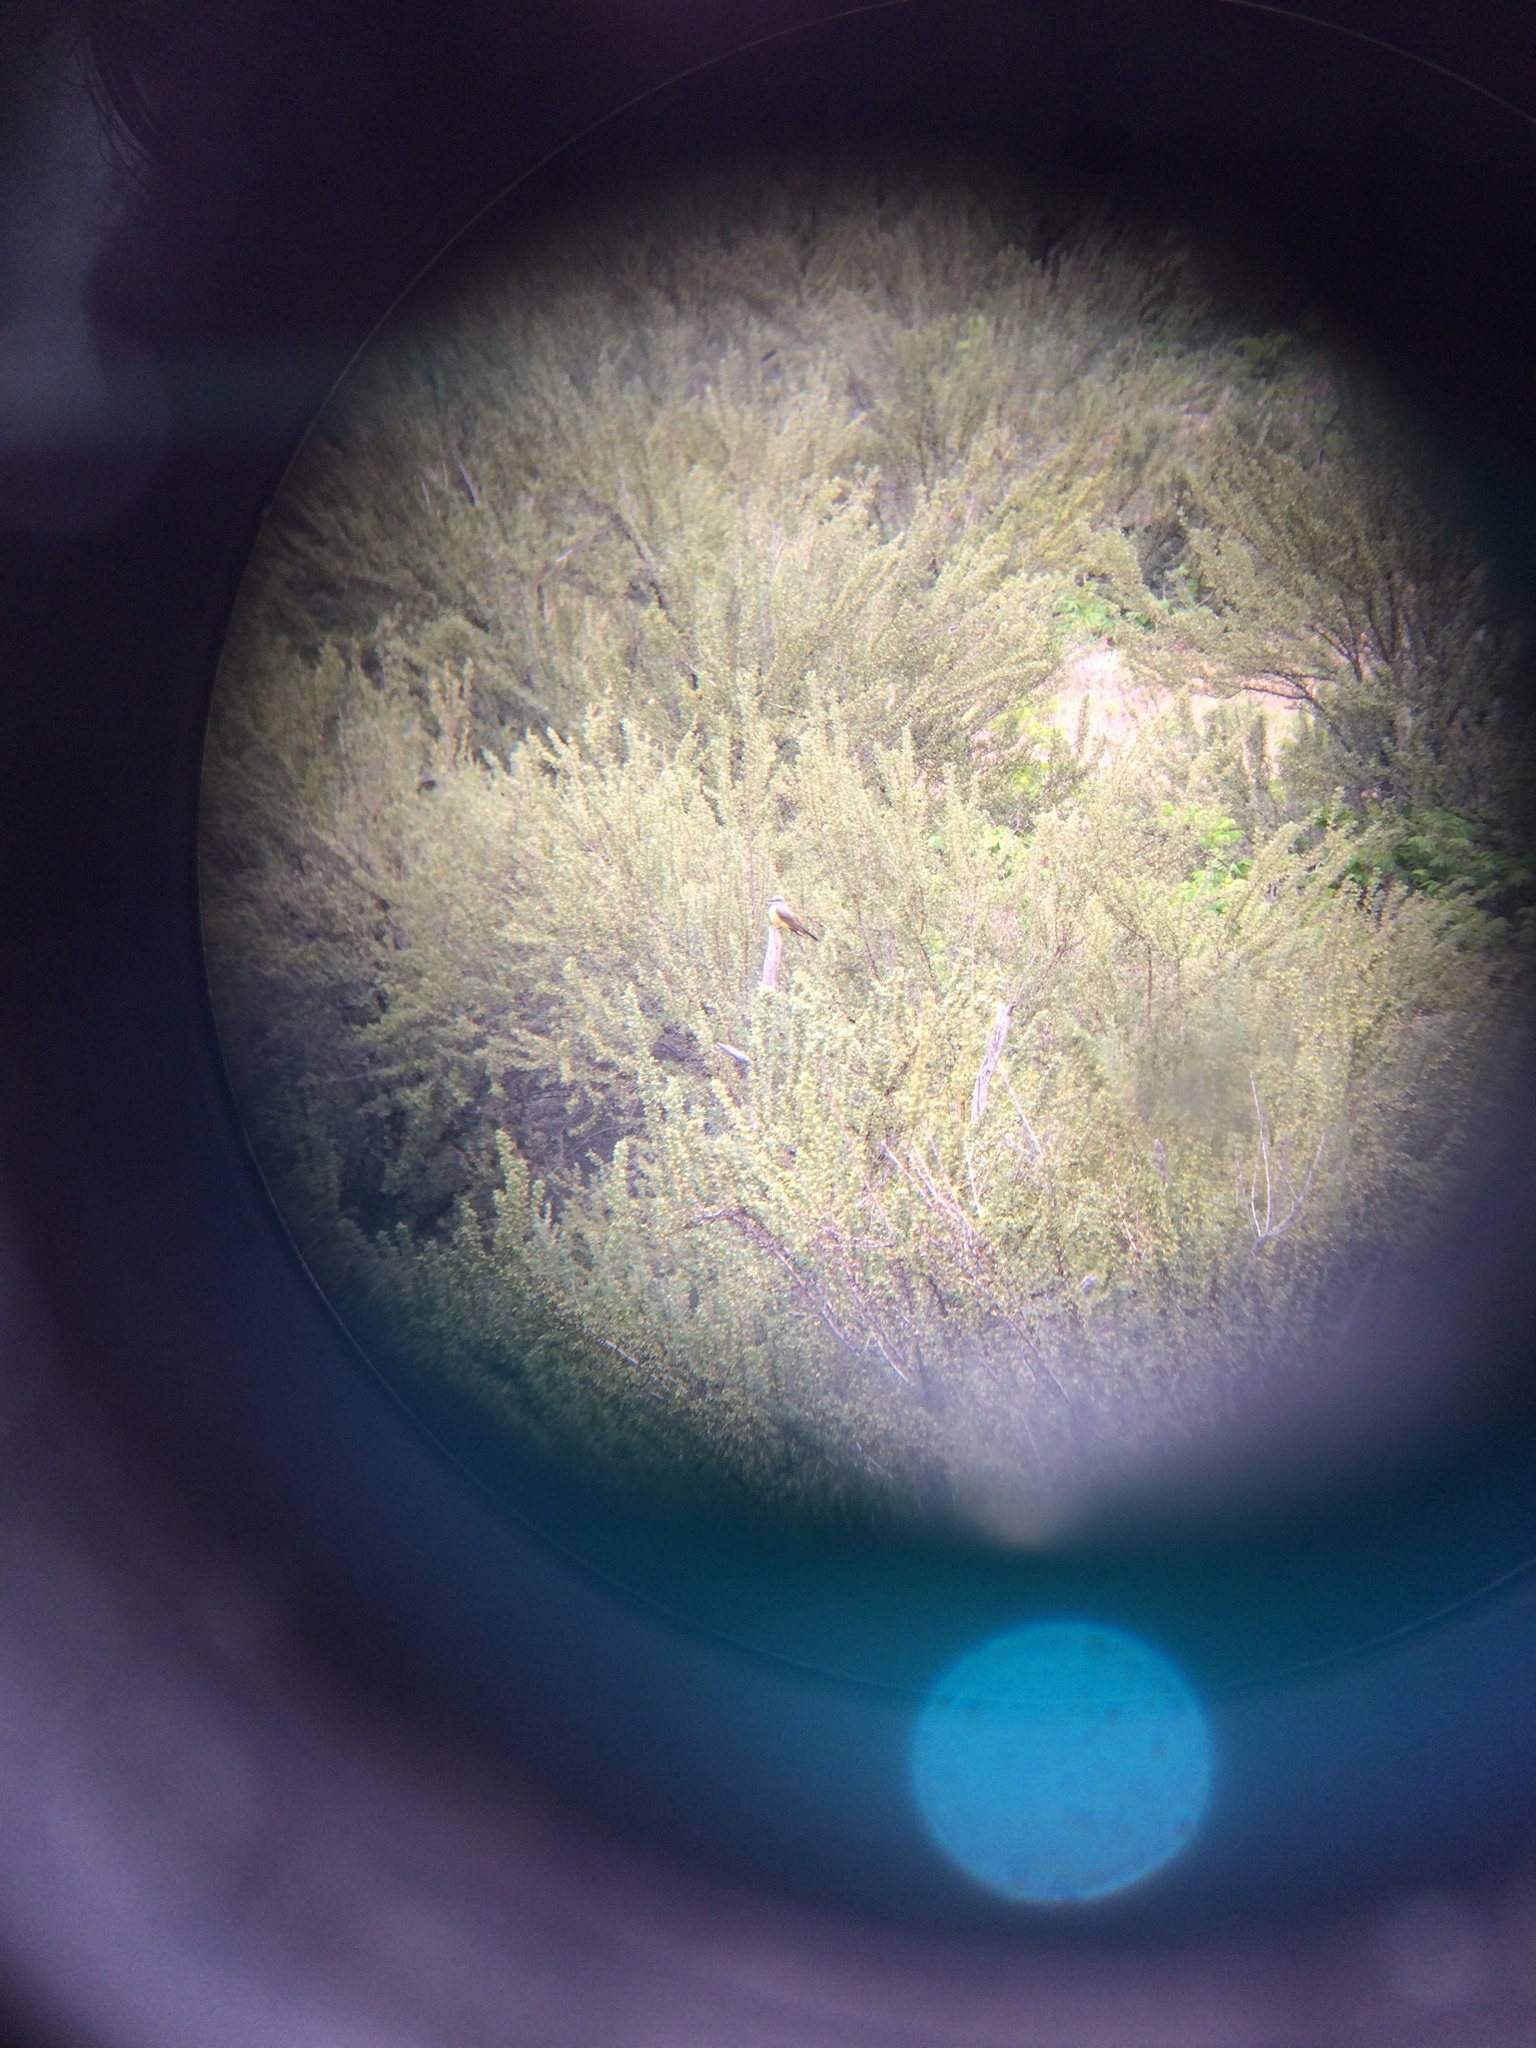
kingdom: Animalia
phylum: Chordata
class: Aves
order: Passeriformes
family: Tyrannidae
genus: Tyrannus
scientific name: Tyrannus verticalis
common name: Western kingbird
